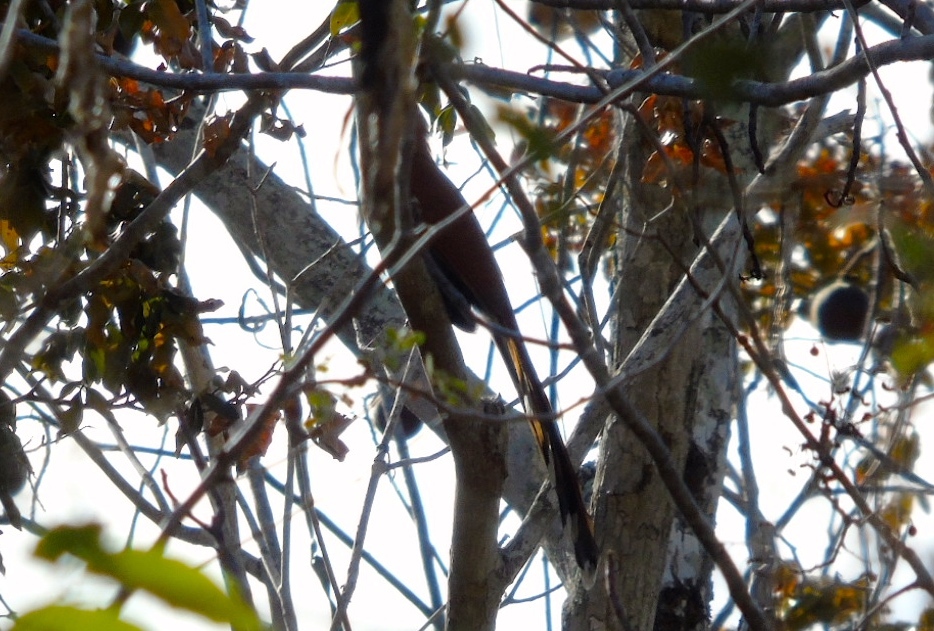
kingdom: Animalia
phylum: Chordata
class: Aves
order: Cuculiformes
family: Cuculidae
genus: Piaya
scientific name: Piaya cayana
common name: Squirrel cuckoo
